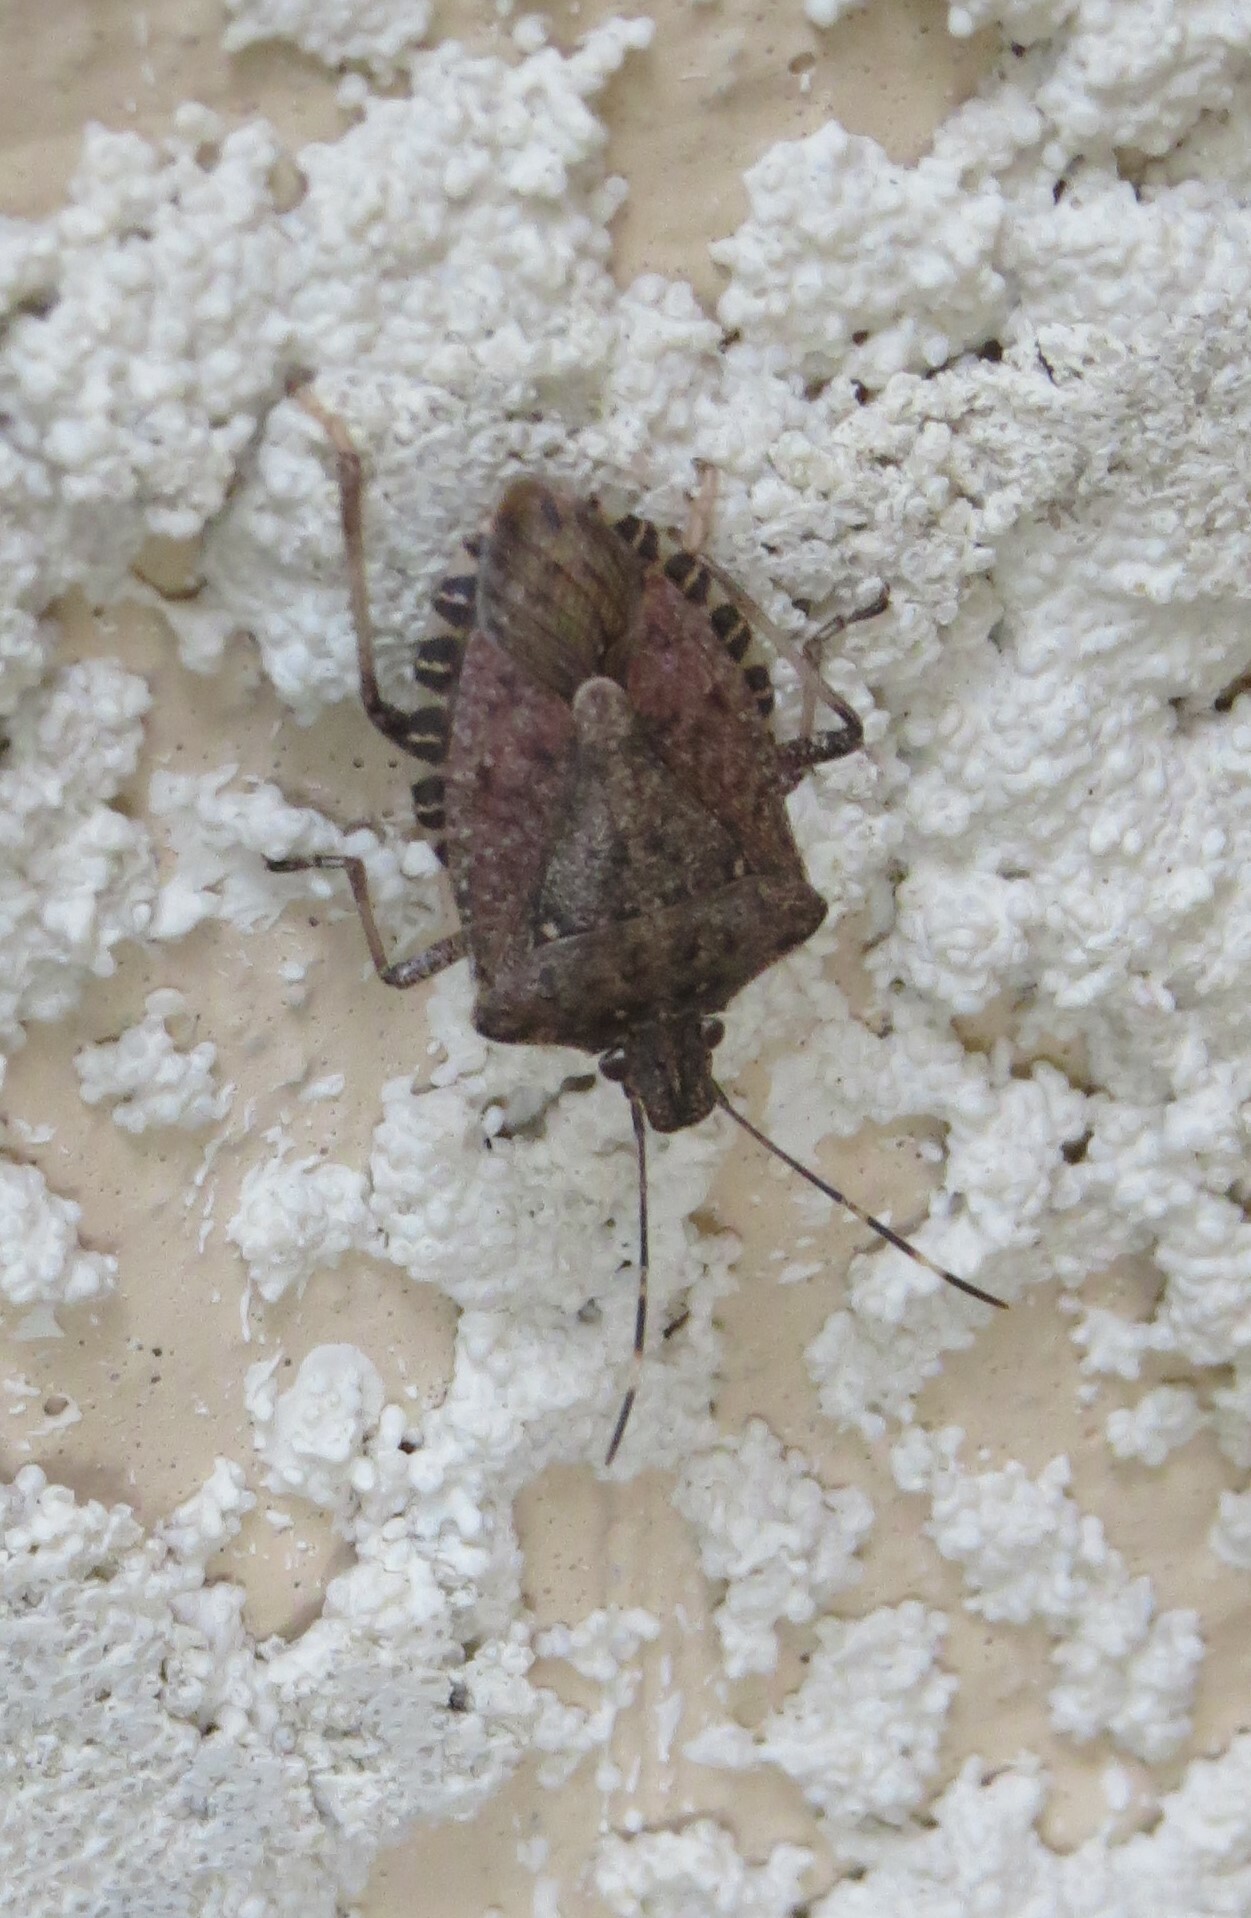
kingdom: Animalia
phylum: Arthropoda
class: Insecta
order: Hemiptera
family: Pentatomidae
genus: Halyomorpha
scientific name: Halyomorpha halys
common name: Brown marmorated stink bug
